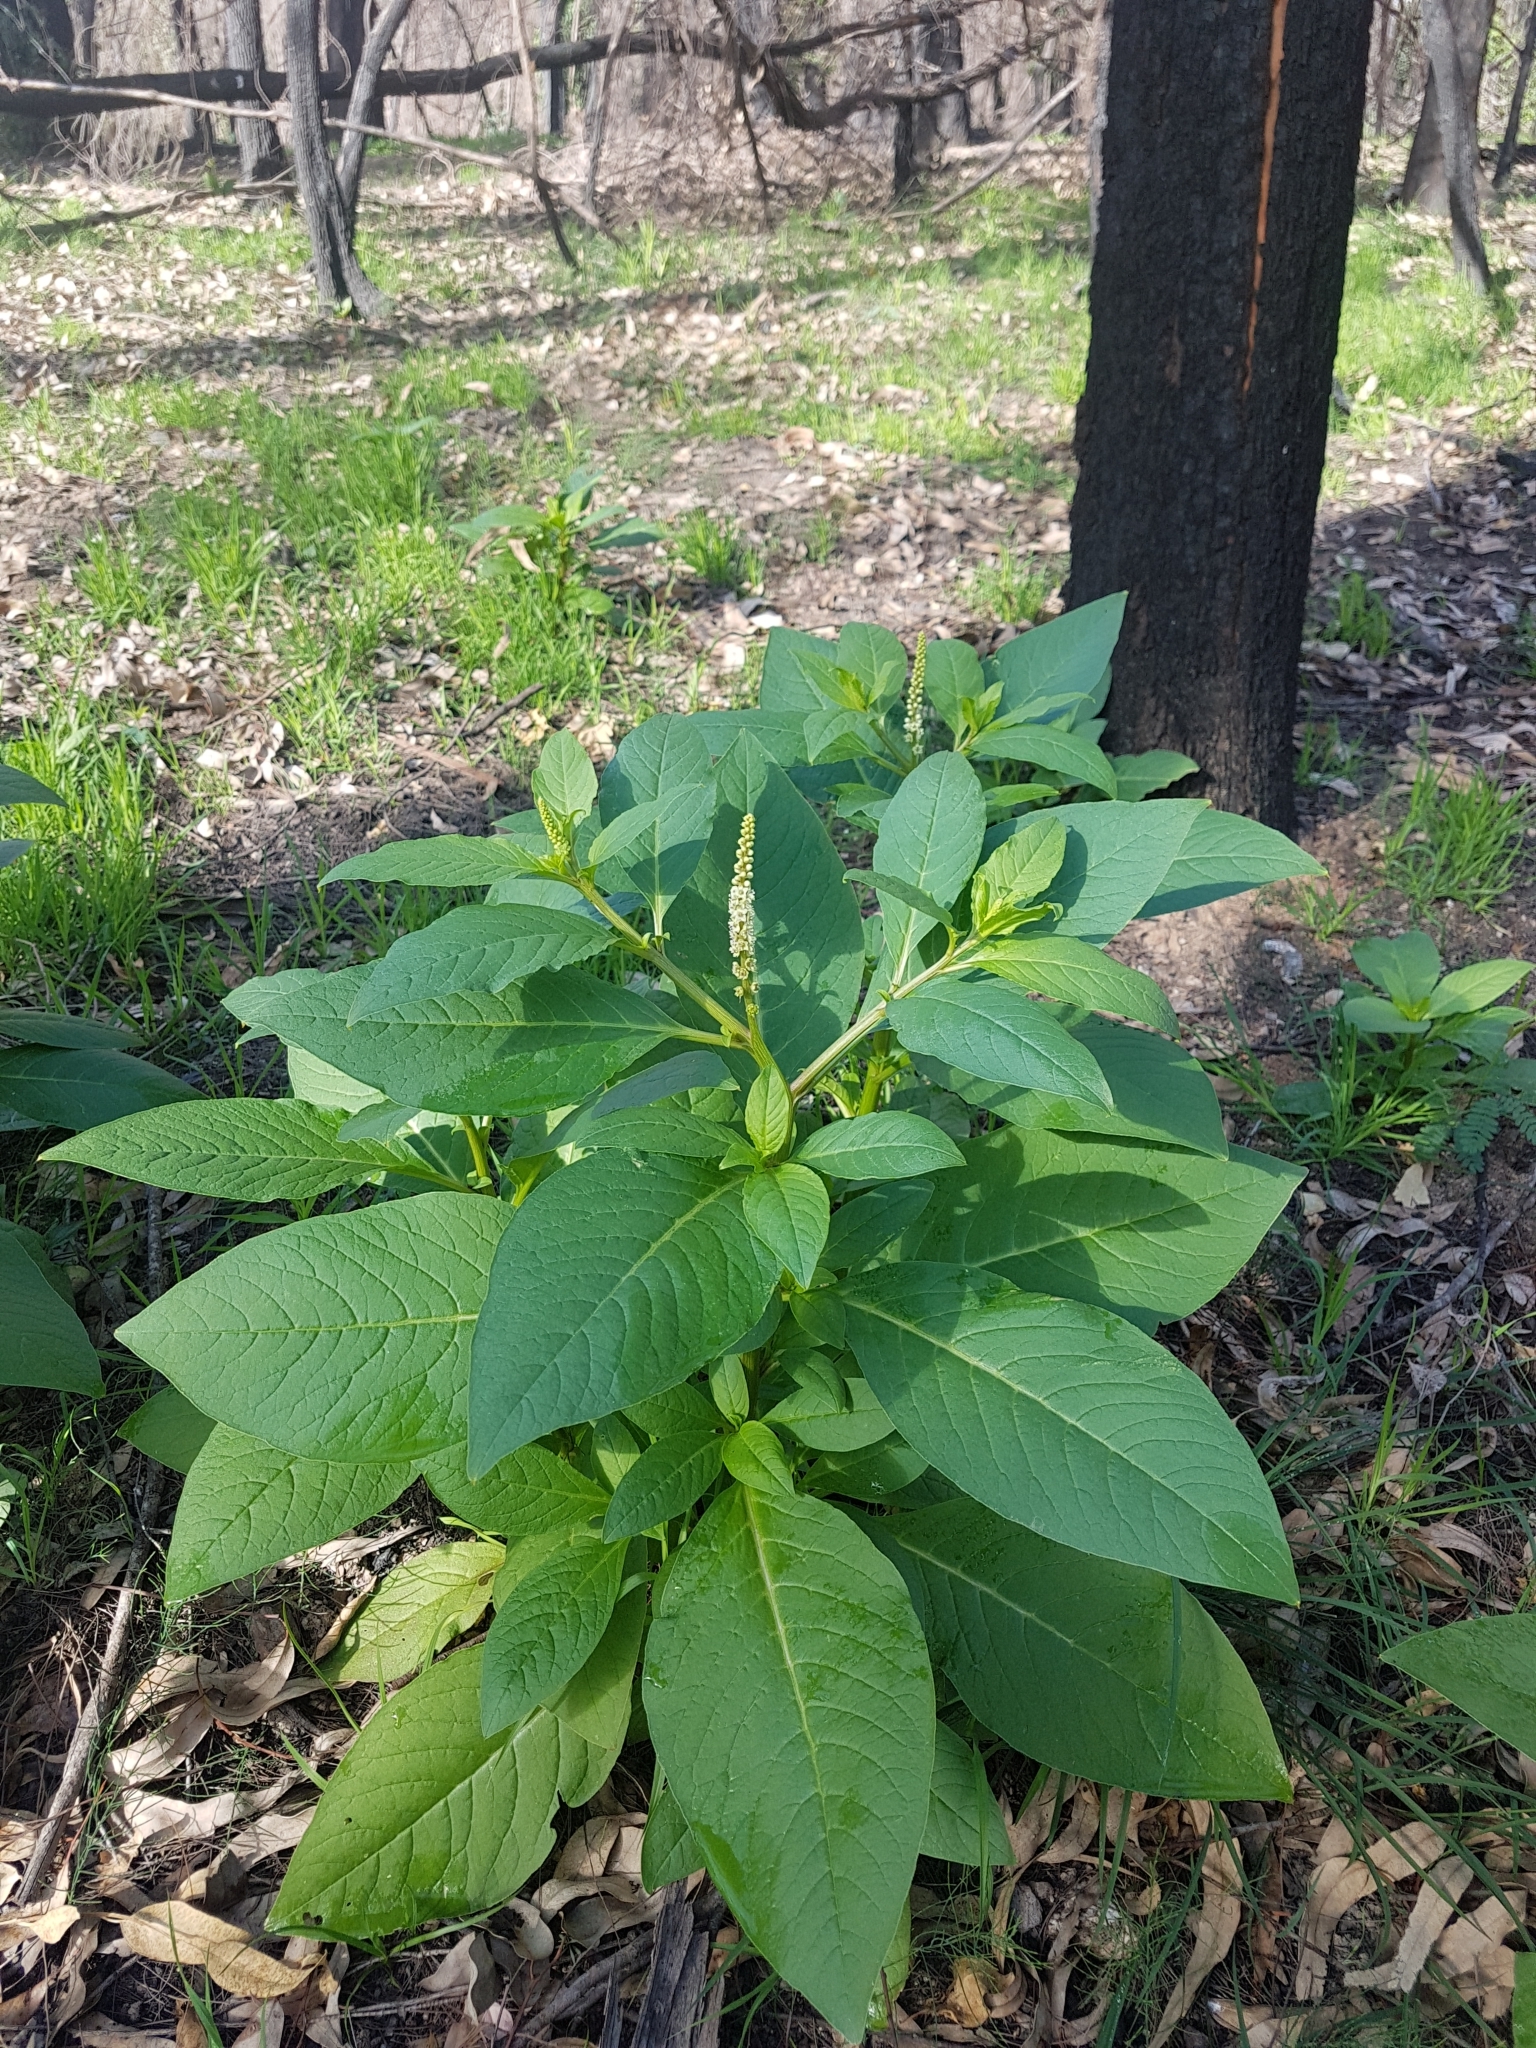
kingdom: Plantae
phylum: Tracheophyta
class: Magnoliopsida
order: Caryophyllales
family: Phytolaccaceae
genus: Phytolacca
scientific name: Phytolacca icosandra
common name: Button pokeweed
